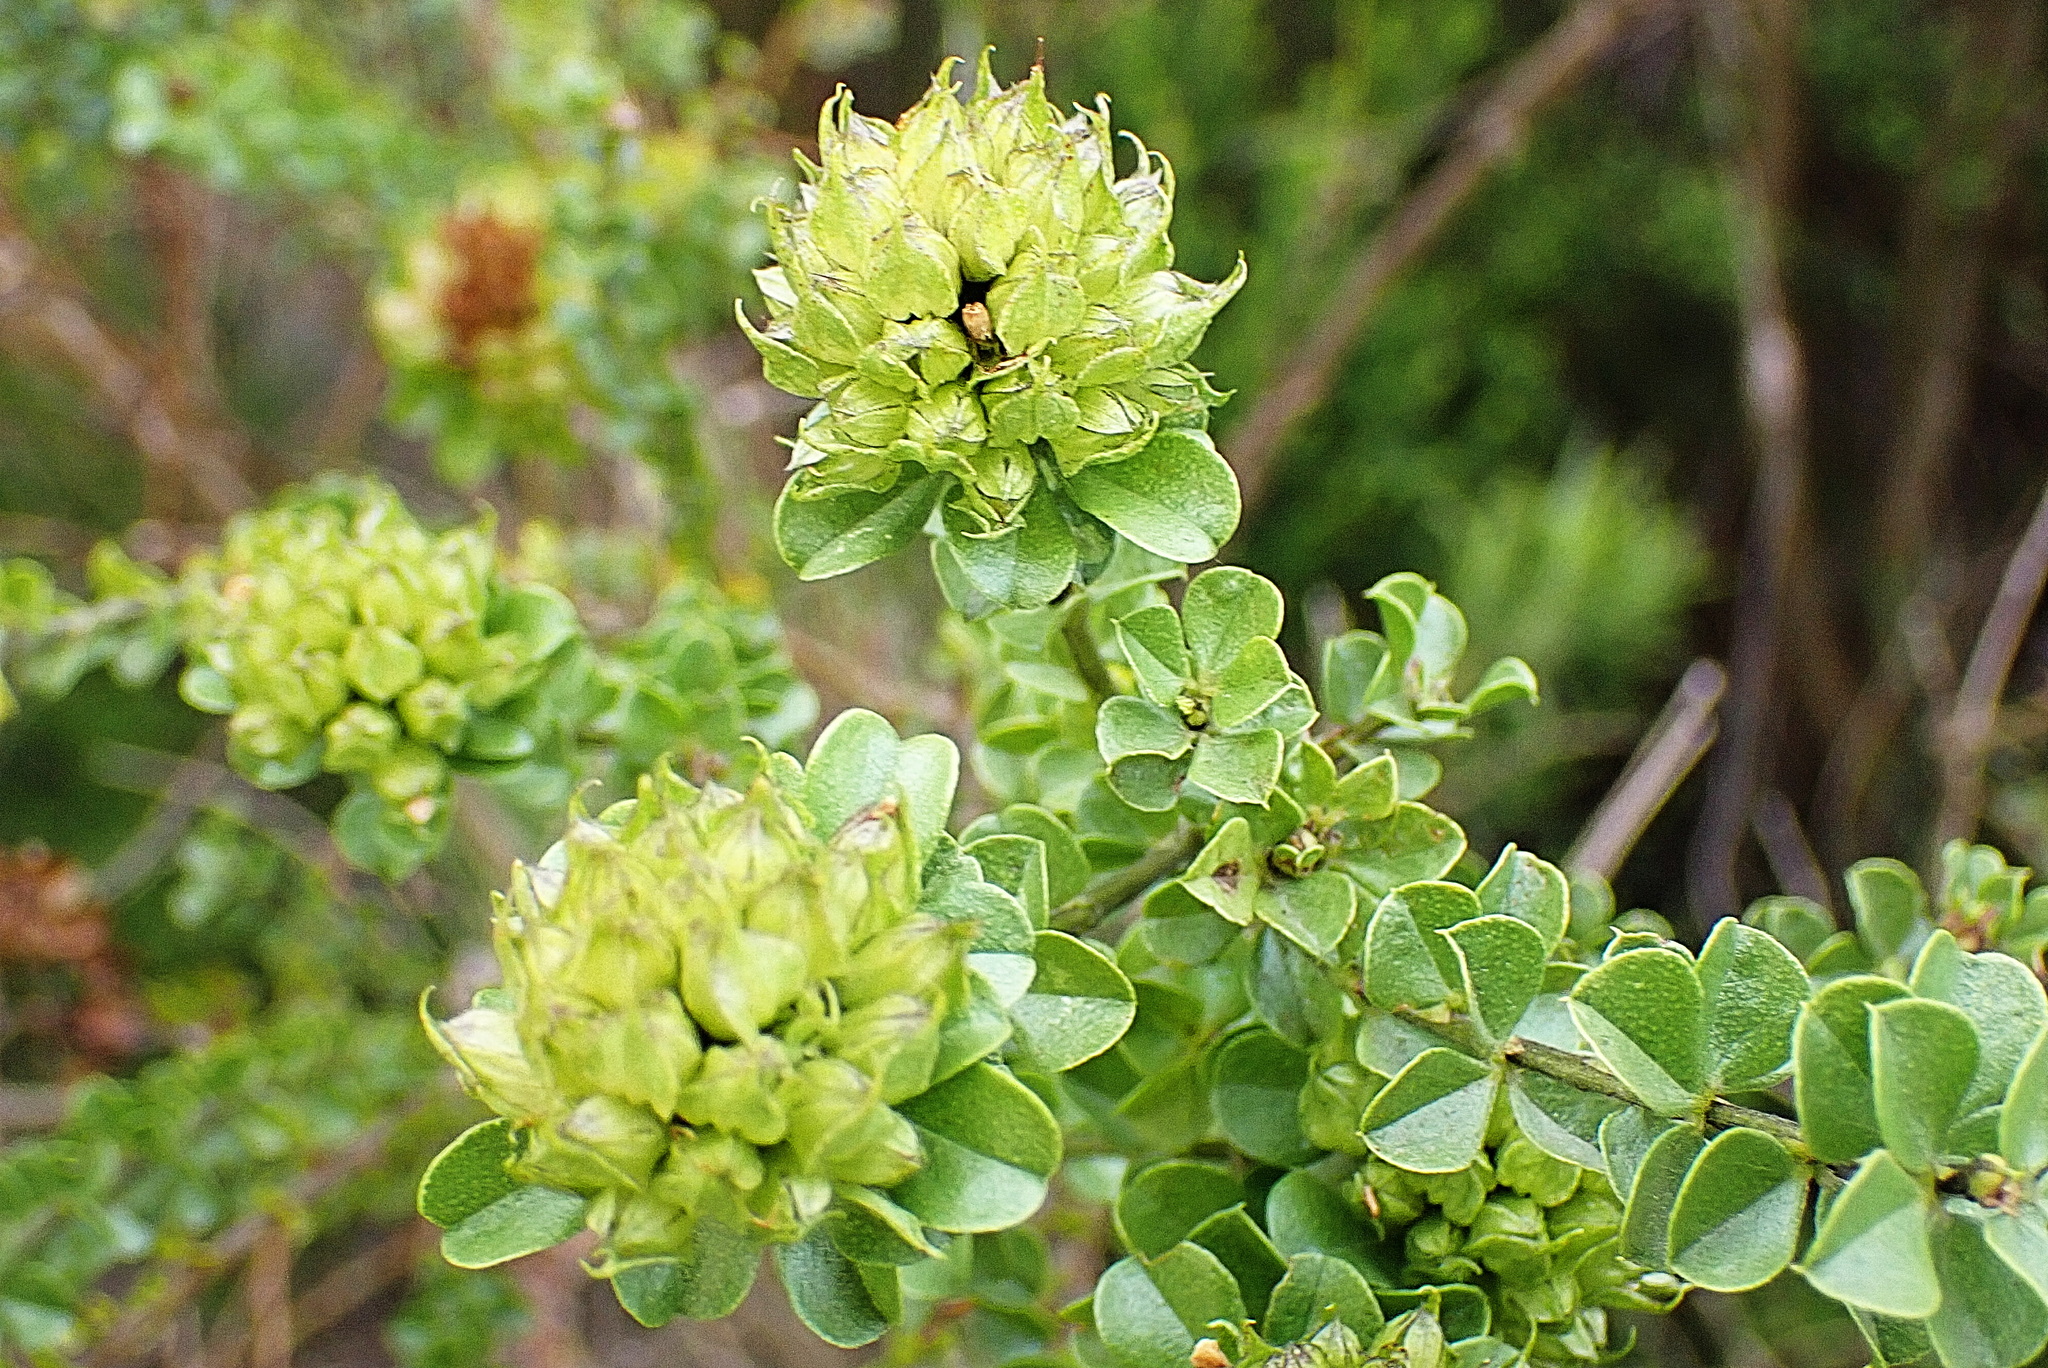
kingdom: Plantae
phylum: Tracheophyta
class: Magnoliopsida
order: Fabales
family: Fabaceae
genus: Psoralea
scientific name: Psoralea acuminata
